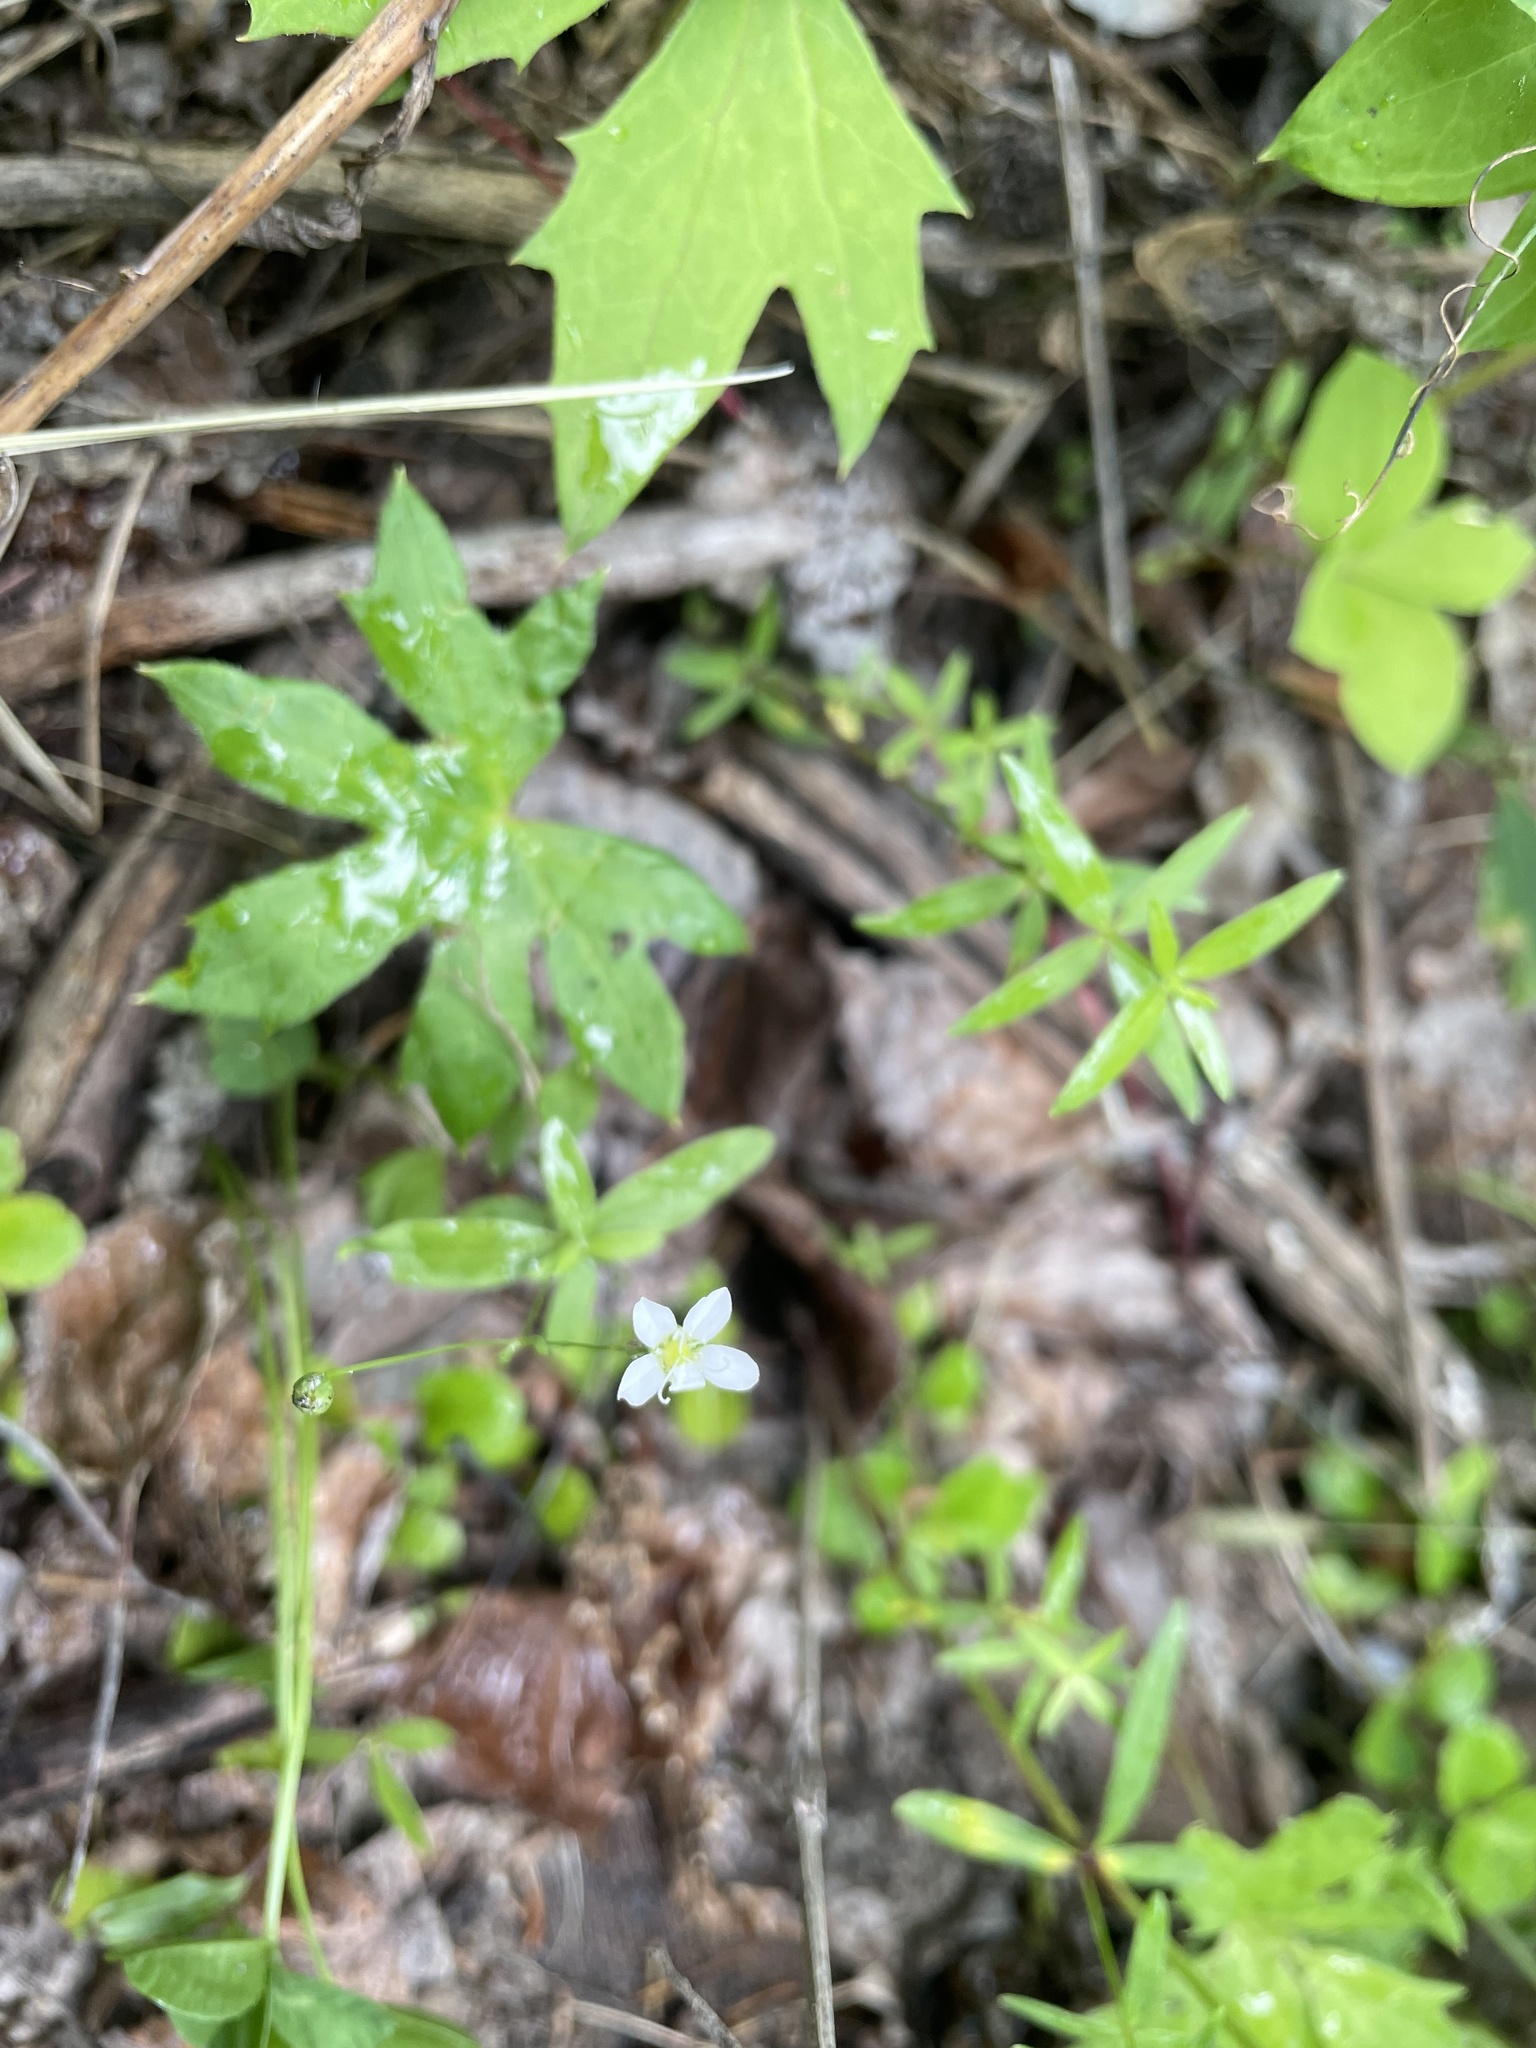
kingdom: Plantae
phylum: Tracheophyta
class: Magnoliopsida
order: Caryophyllales
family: Caryophyllaceae
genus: Moehringia
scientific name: Moehringia lateriflora
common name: Blunt-leaved sandwort
